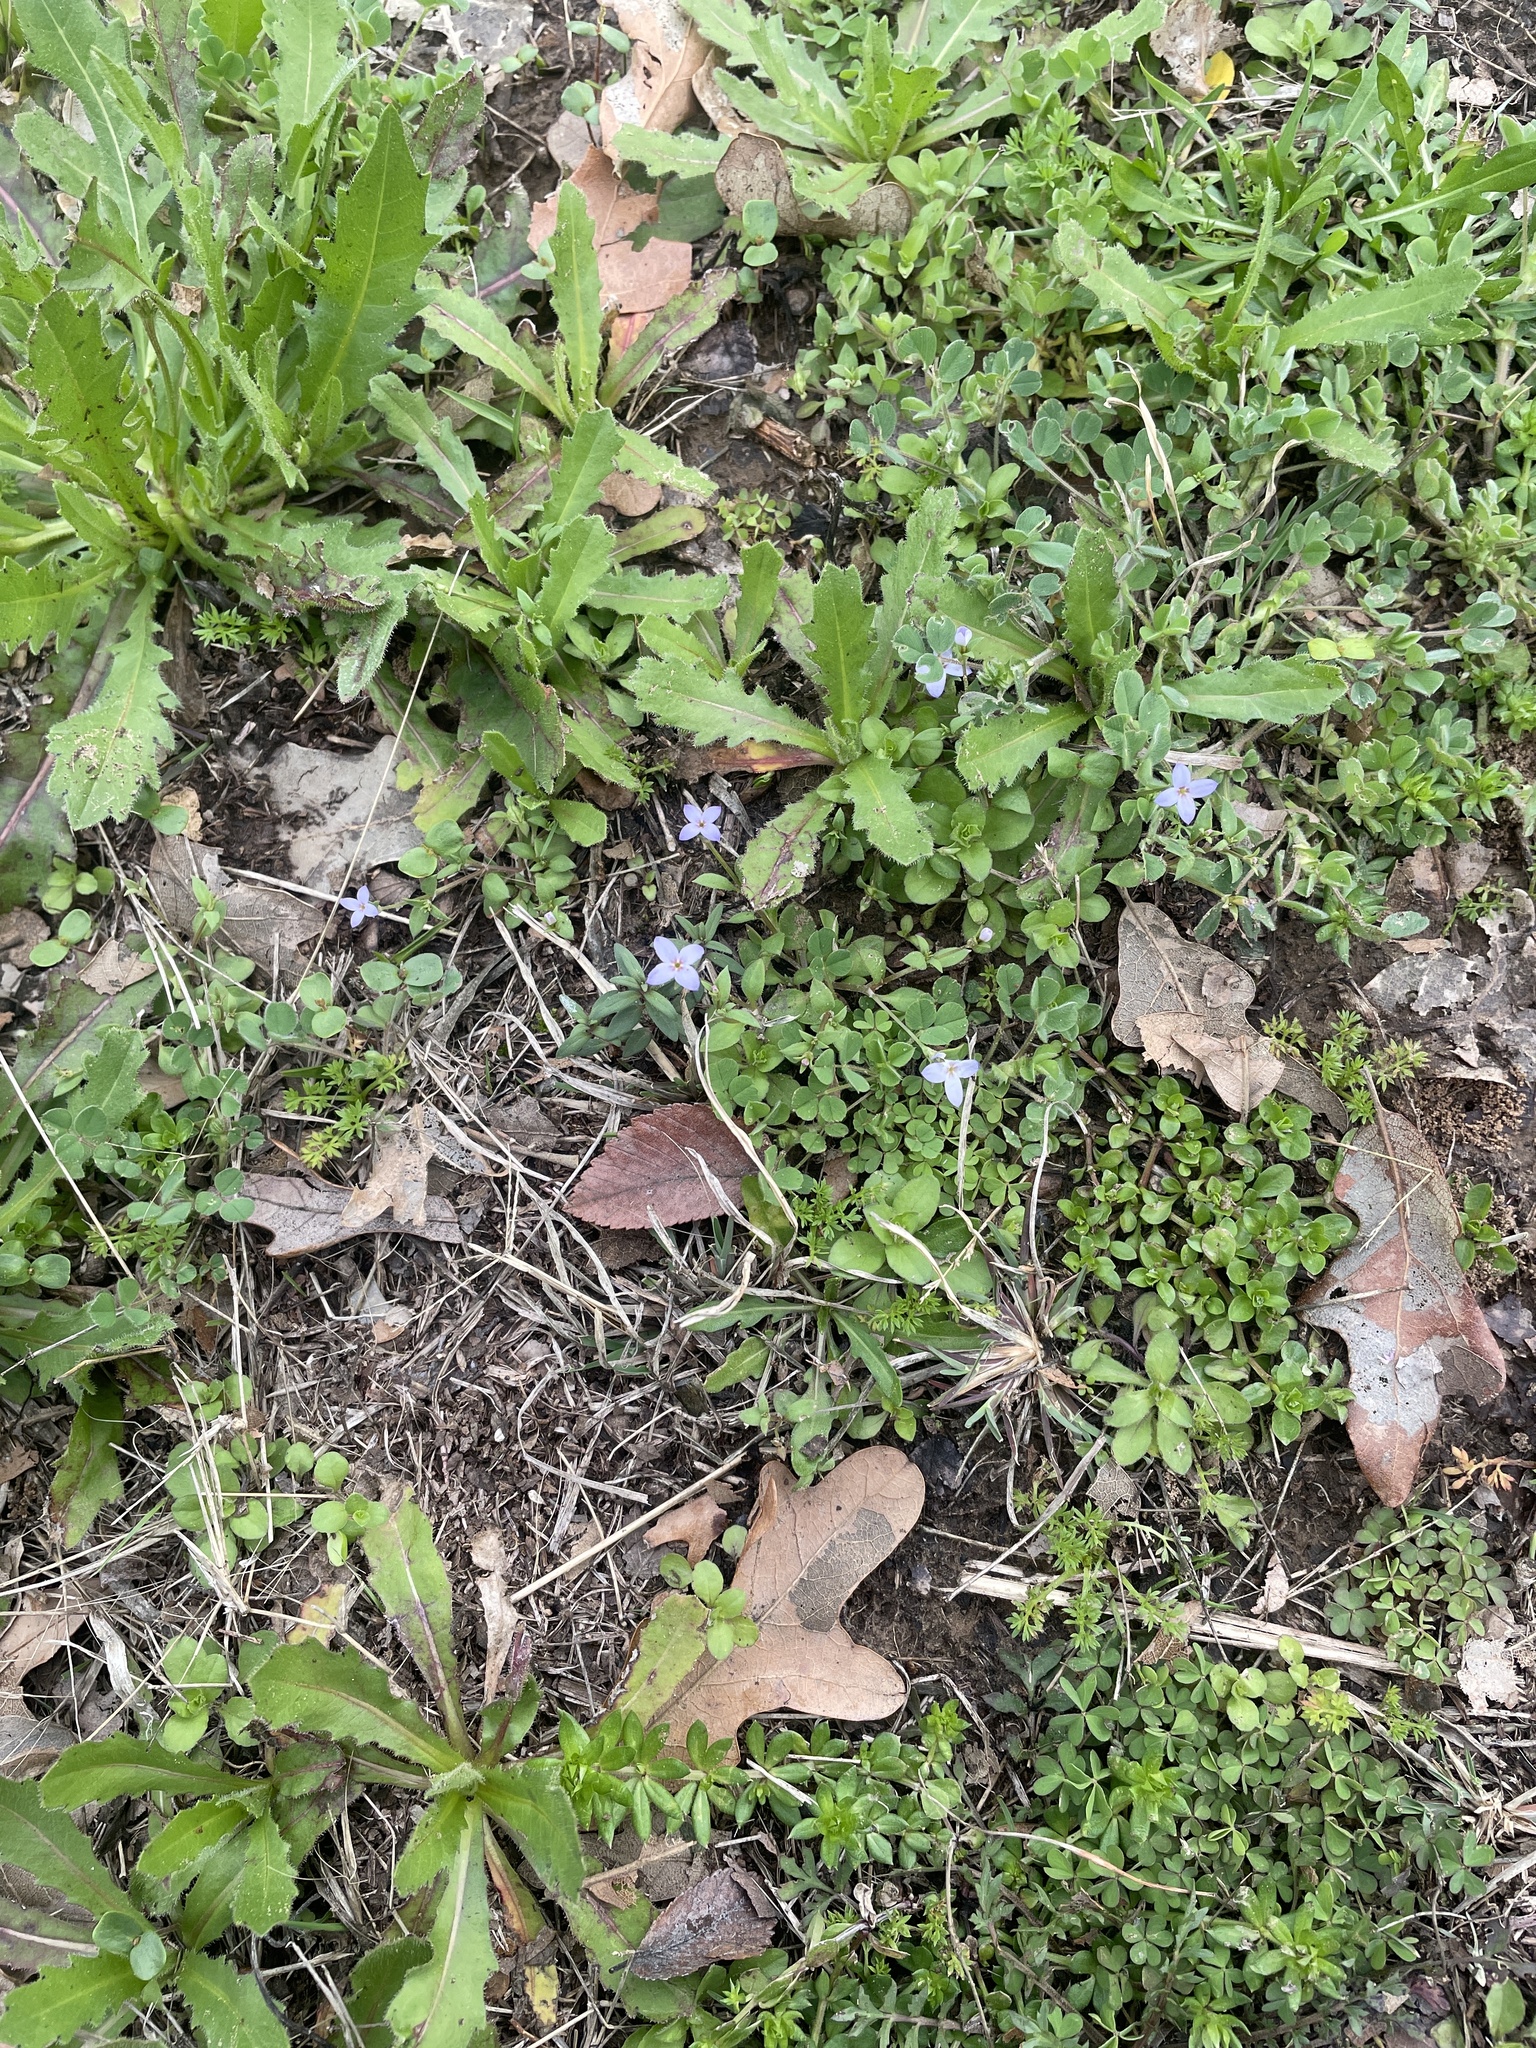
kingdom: Plantae
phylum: Tracheophyta
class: Magnoliopsida
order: Gentianales
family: Rubiaceae
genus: Houstonia
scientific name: Houstonia pusilla
